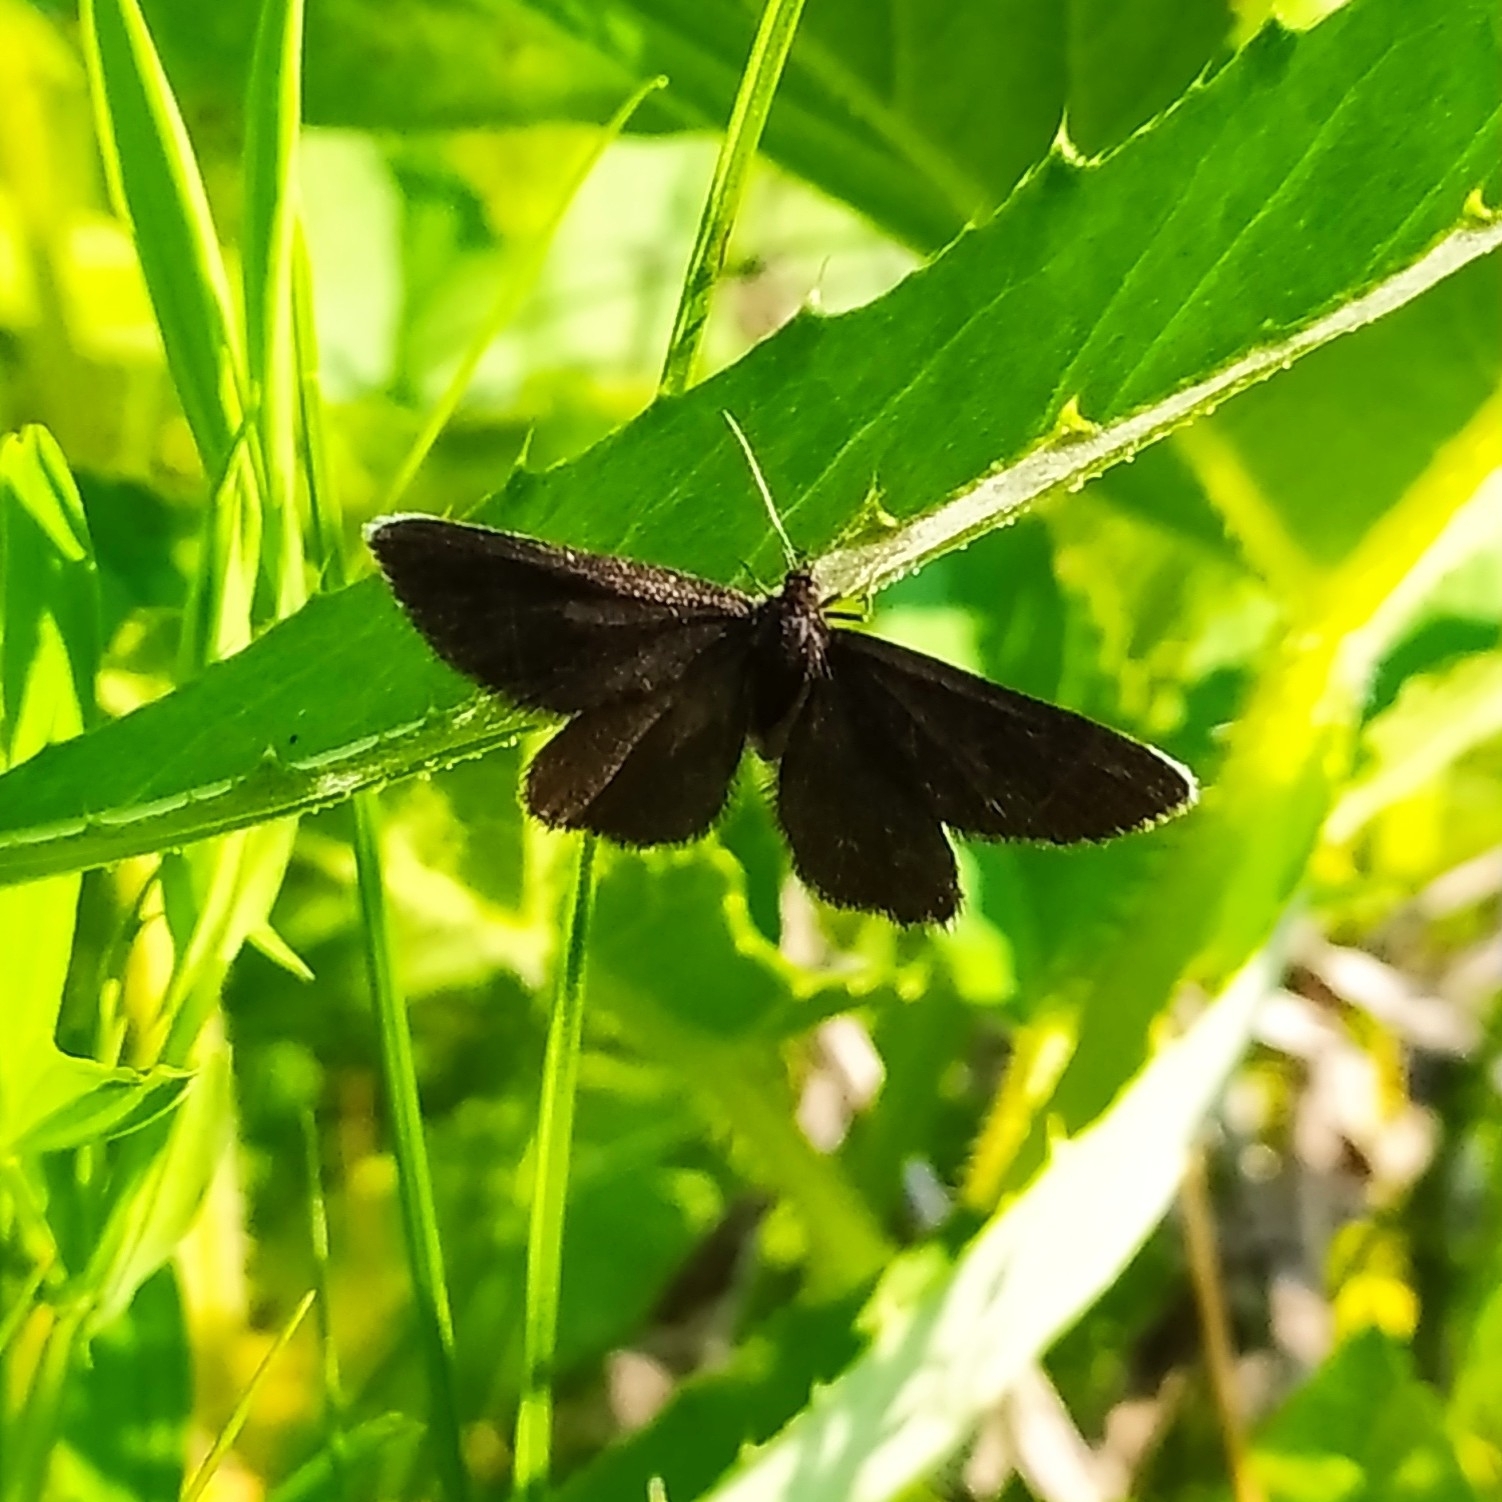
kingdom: Animalia
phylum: Arthropoda
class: Insecta
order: Lepidoptera
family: Geometridae
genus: Odezia
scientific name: Odezia atrata
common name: Chimney sweeper
